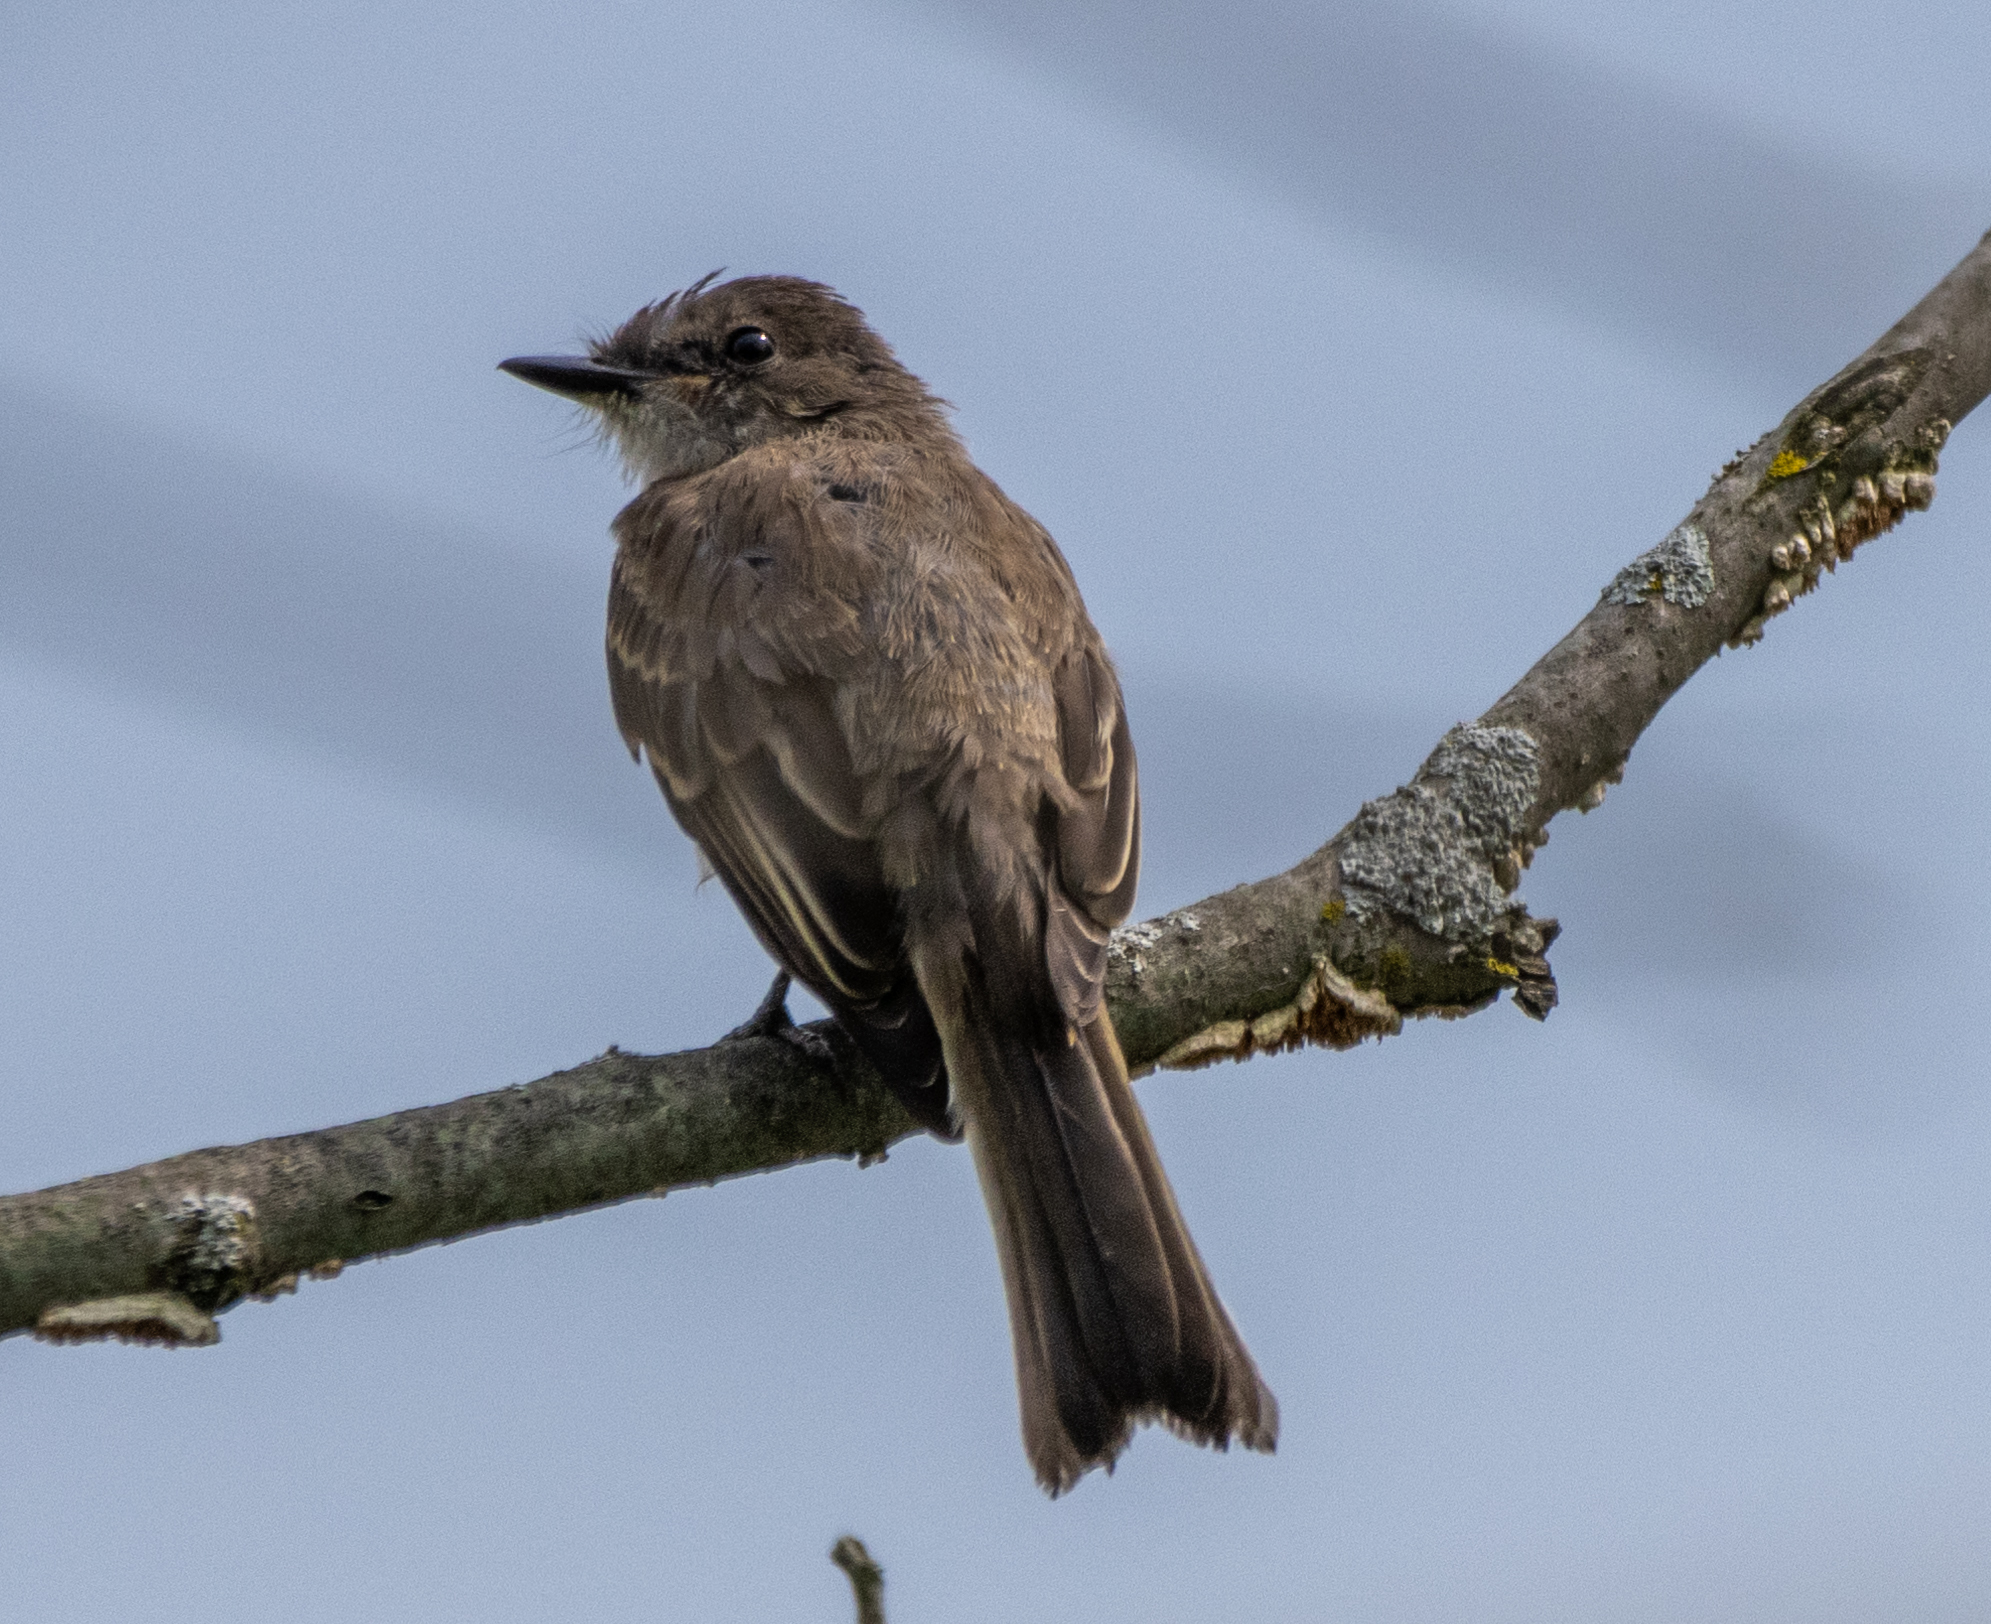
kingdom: Animalia
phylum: Chordata
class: Aves
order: Passeriformes
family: Tyrannidae
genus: Sayornis
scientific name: Sayornis phoebe
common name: Eastern phoebe
